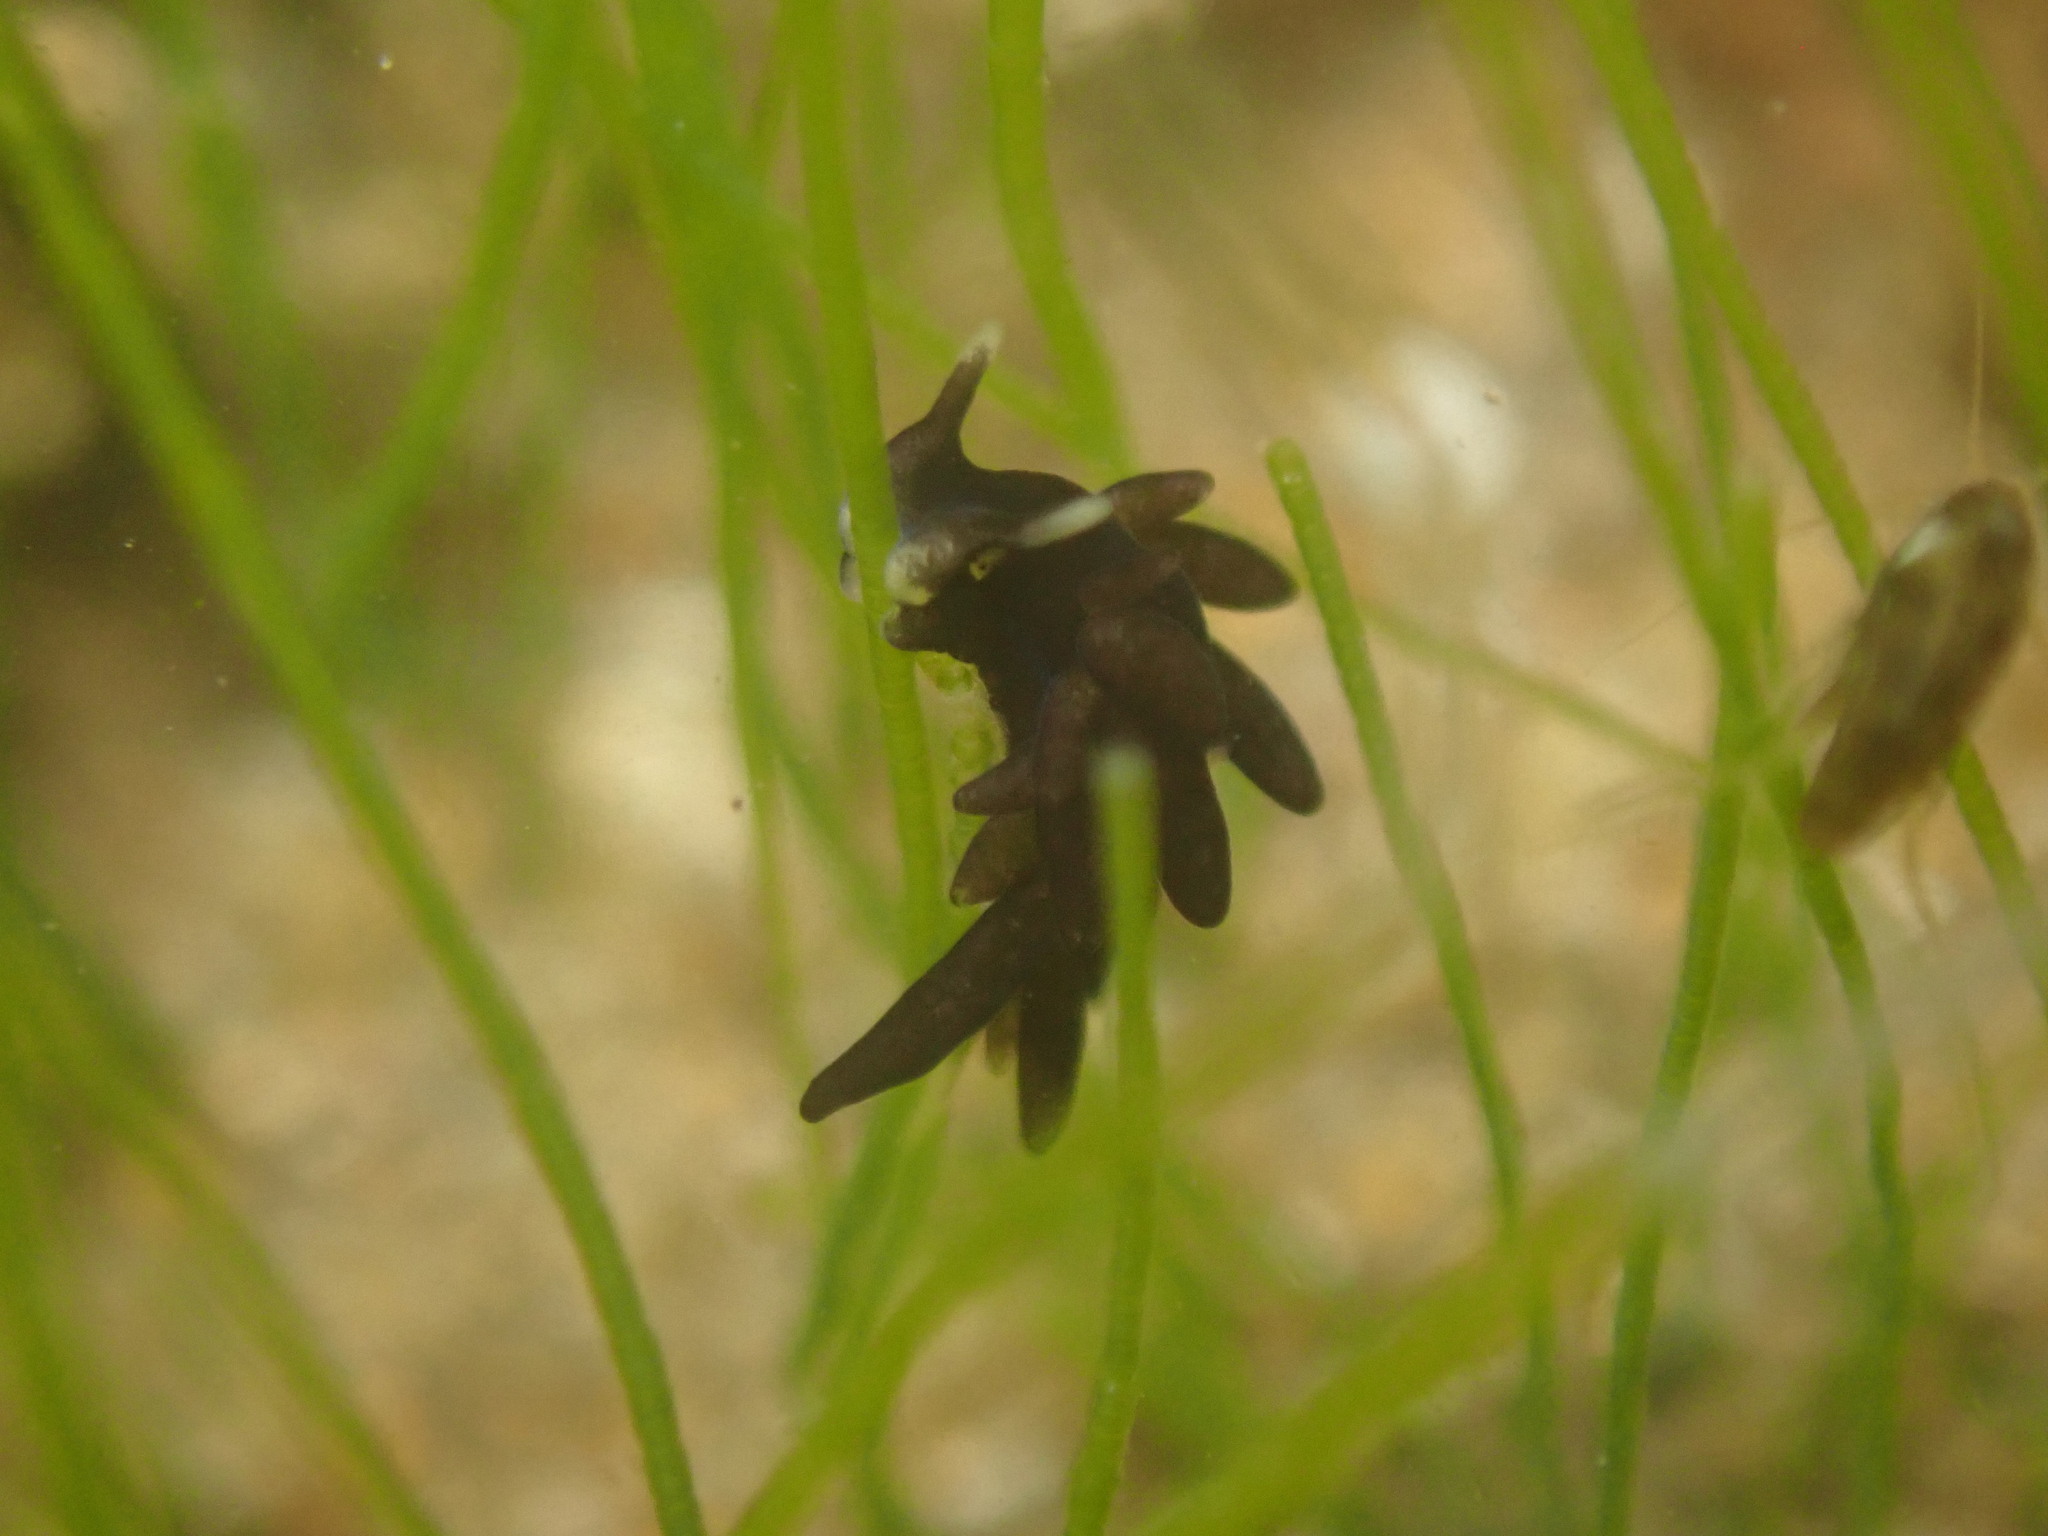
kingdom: Animalia
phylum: Mollusca
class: Gastropoda
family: Limapontiidae
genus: Ercolania
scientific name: Ercolania felina
